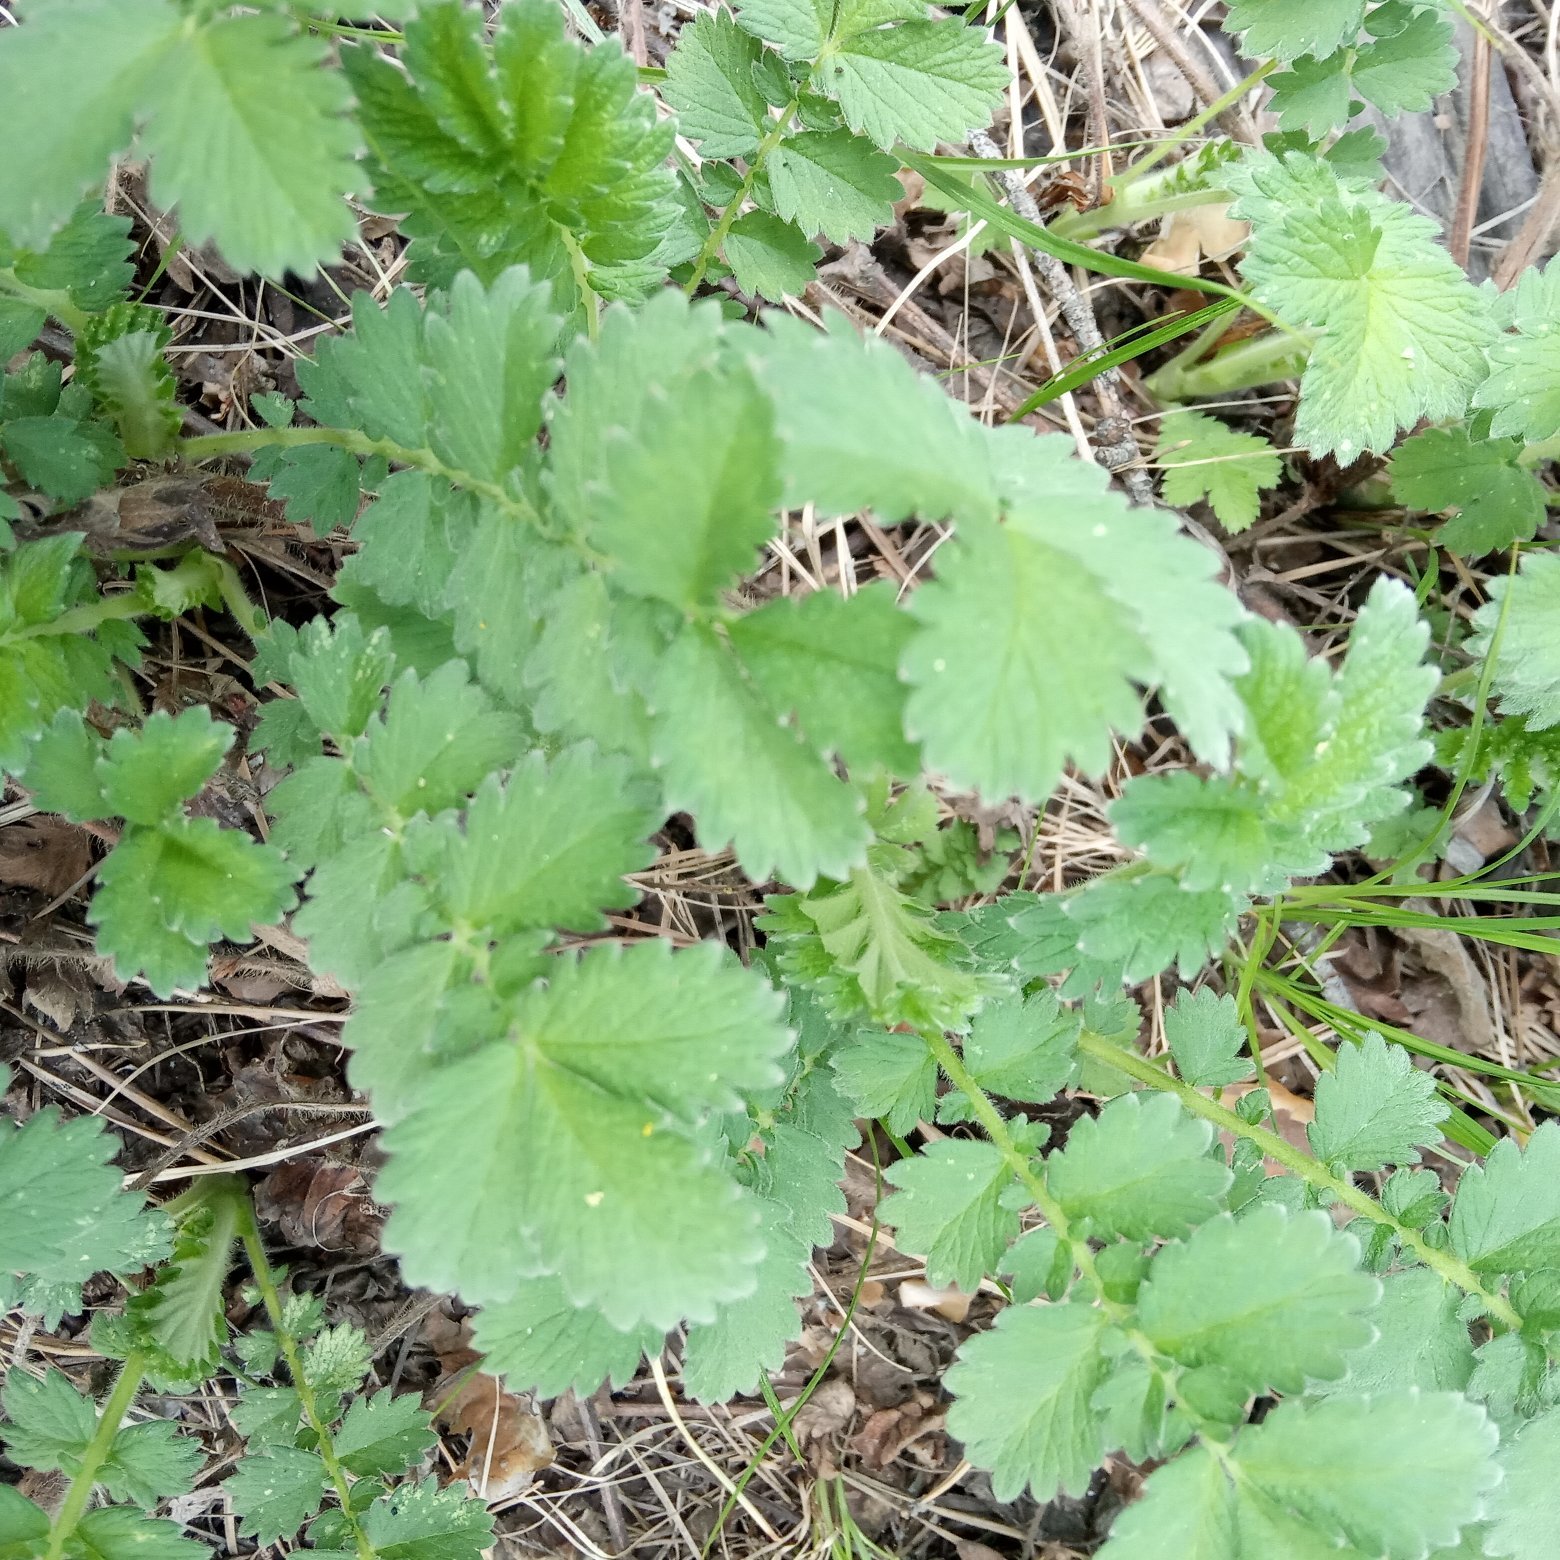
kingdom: Plantae
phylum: Tracheophyta
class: Magnoliopsida
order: Rosales
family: Rosaceae
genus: Agrimonia
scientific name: Agrimonia eupatoria
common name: Agrimony
